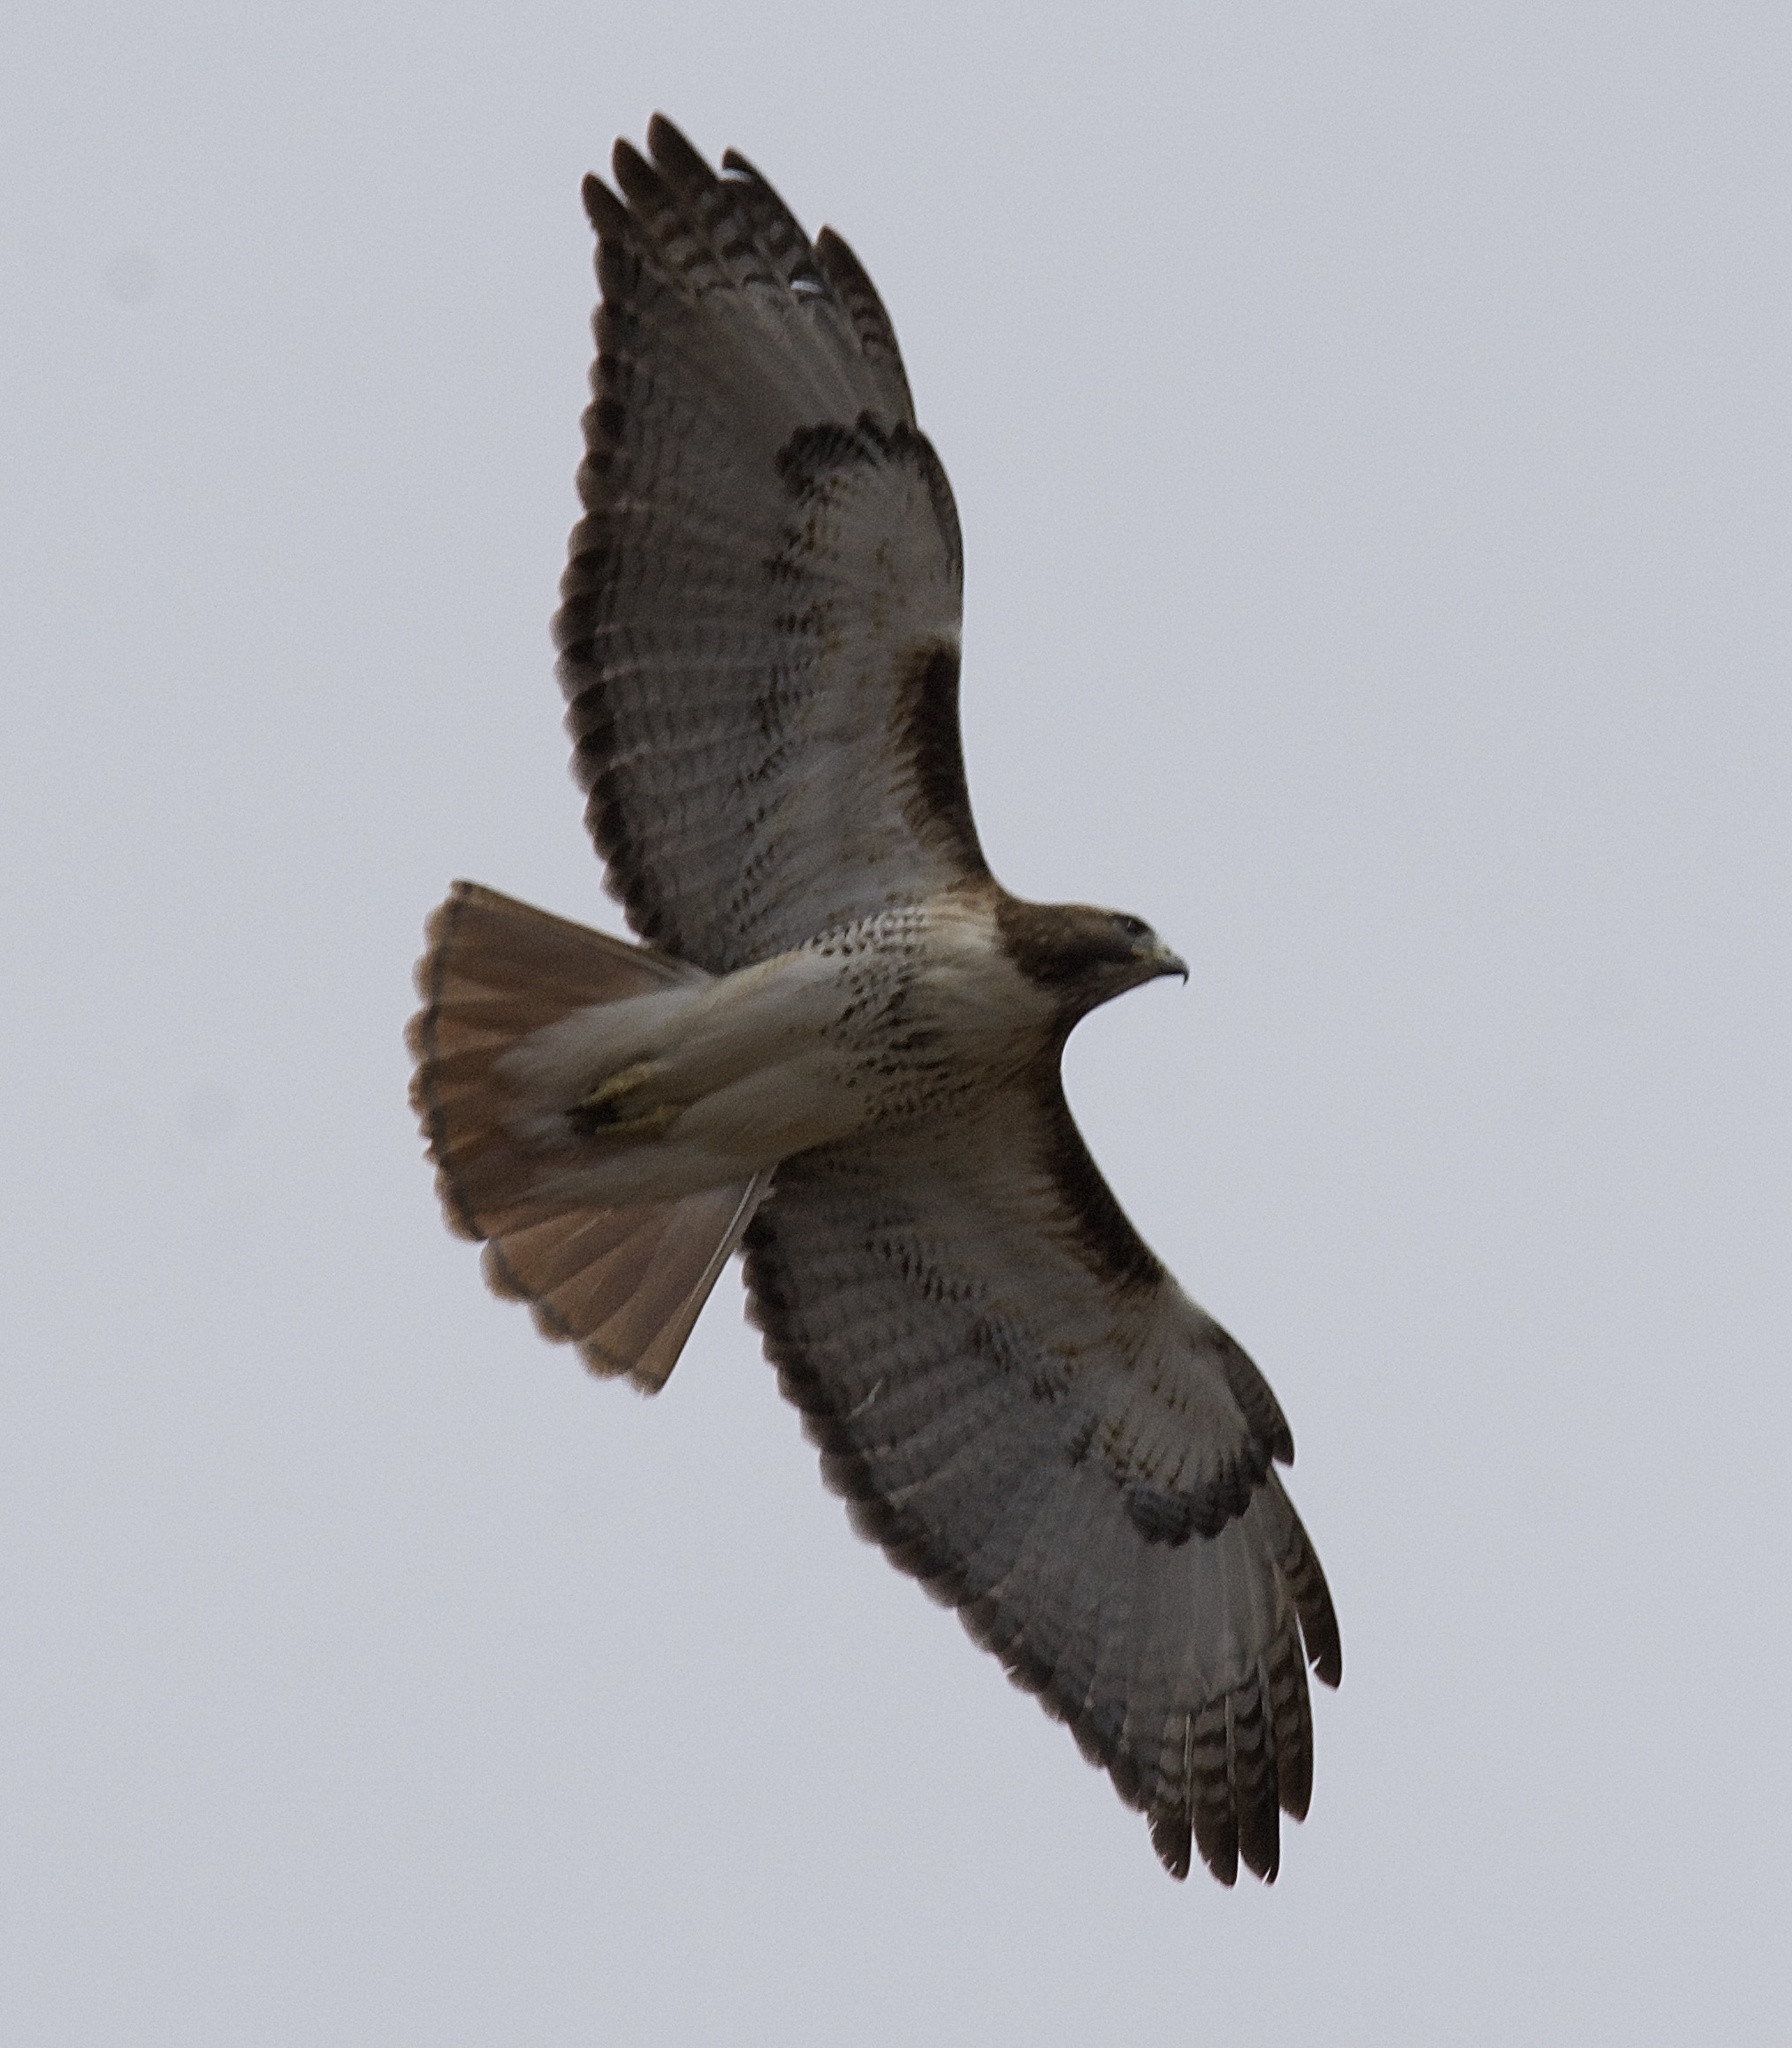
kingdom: Animalia
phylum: Chordata
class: Aves
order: Accipitriformes
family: Accipitridae
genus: Buteo
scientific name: Buteo jamaicensis
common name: Red-tailed hawk
